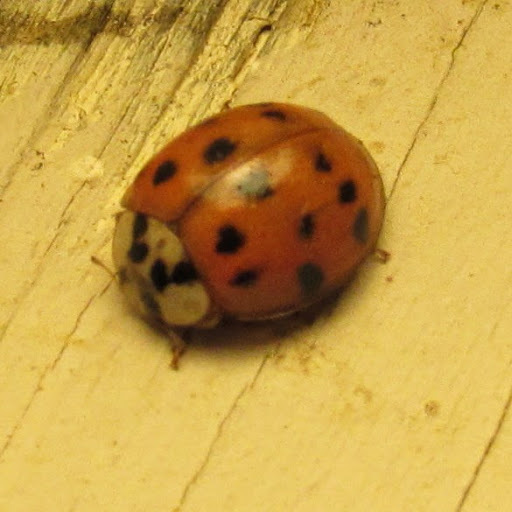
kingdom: Animalia
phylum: Arthropoda
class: Insecta
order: Coleoptera
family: Coccinellidae
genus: Harmonia
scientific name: Harmonia axyridis
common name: Harlequin ladybird
